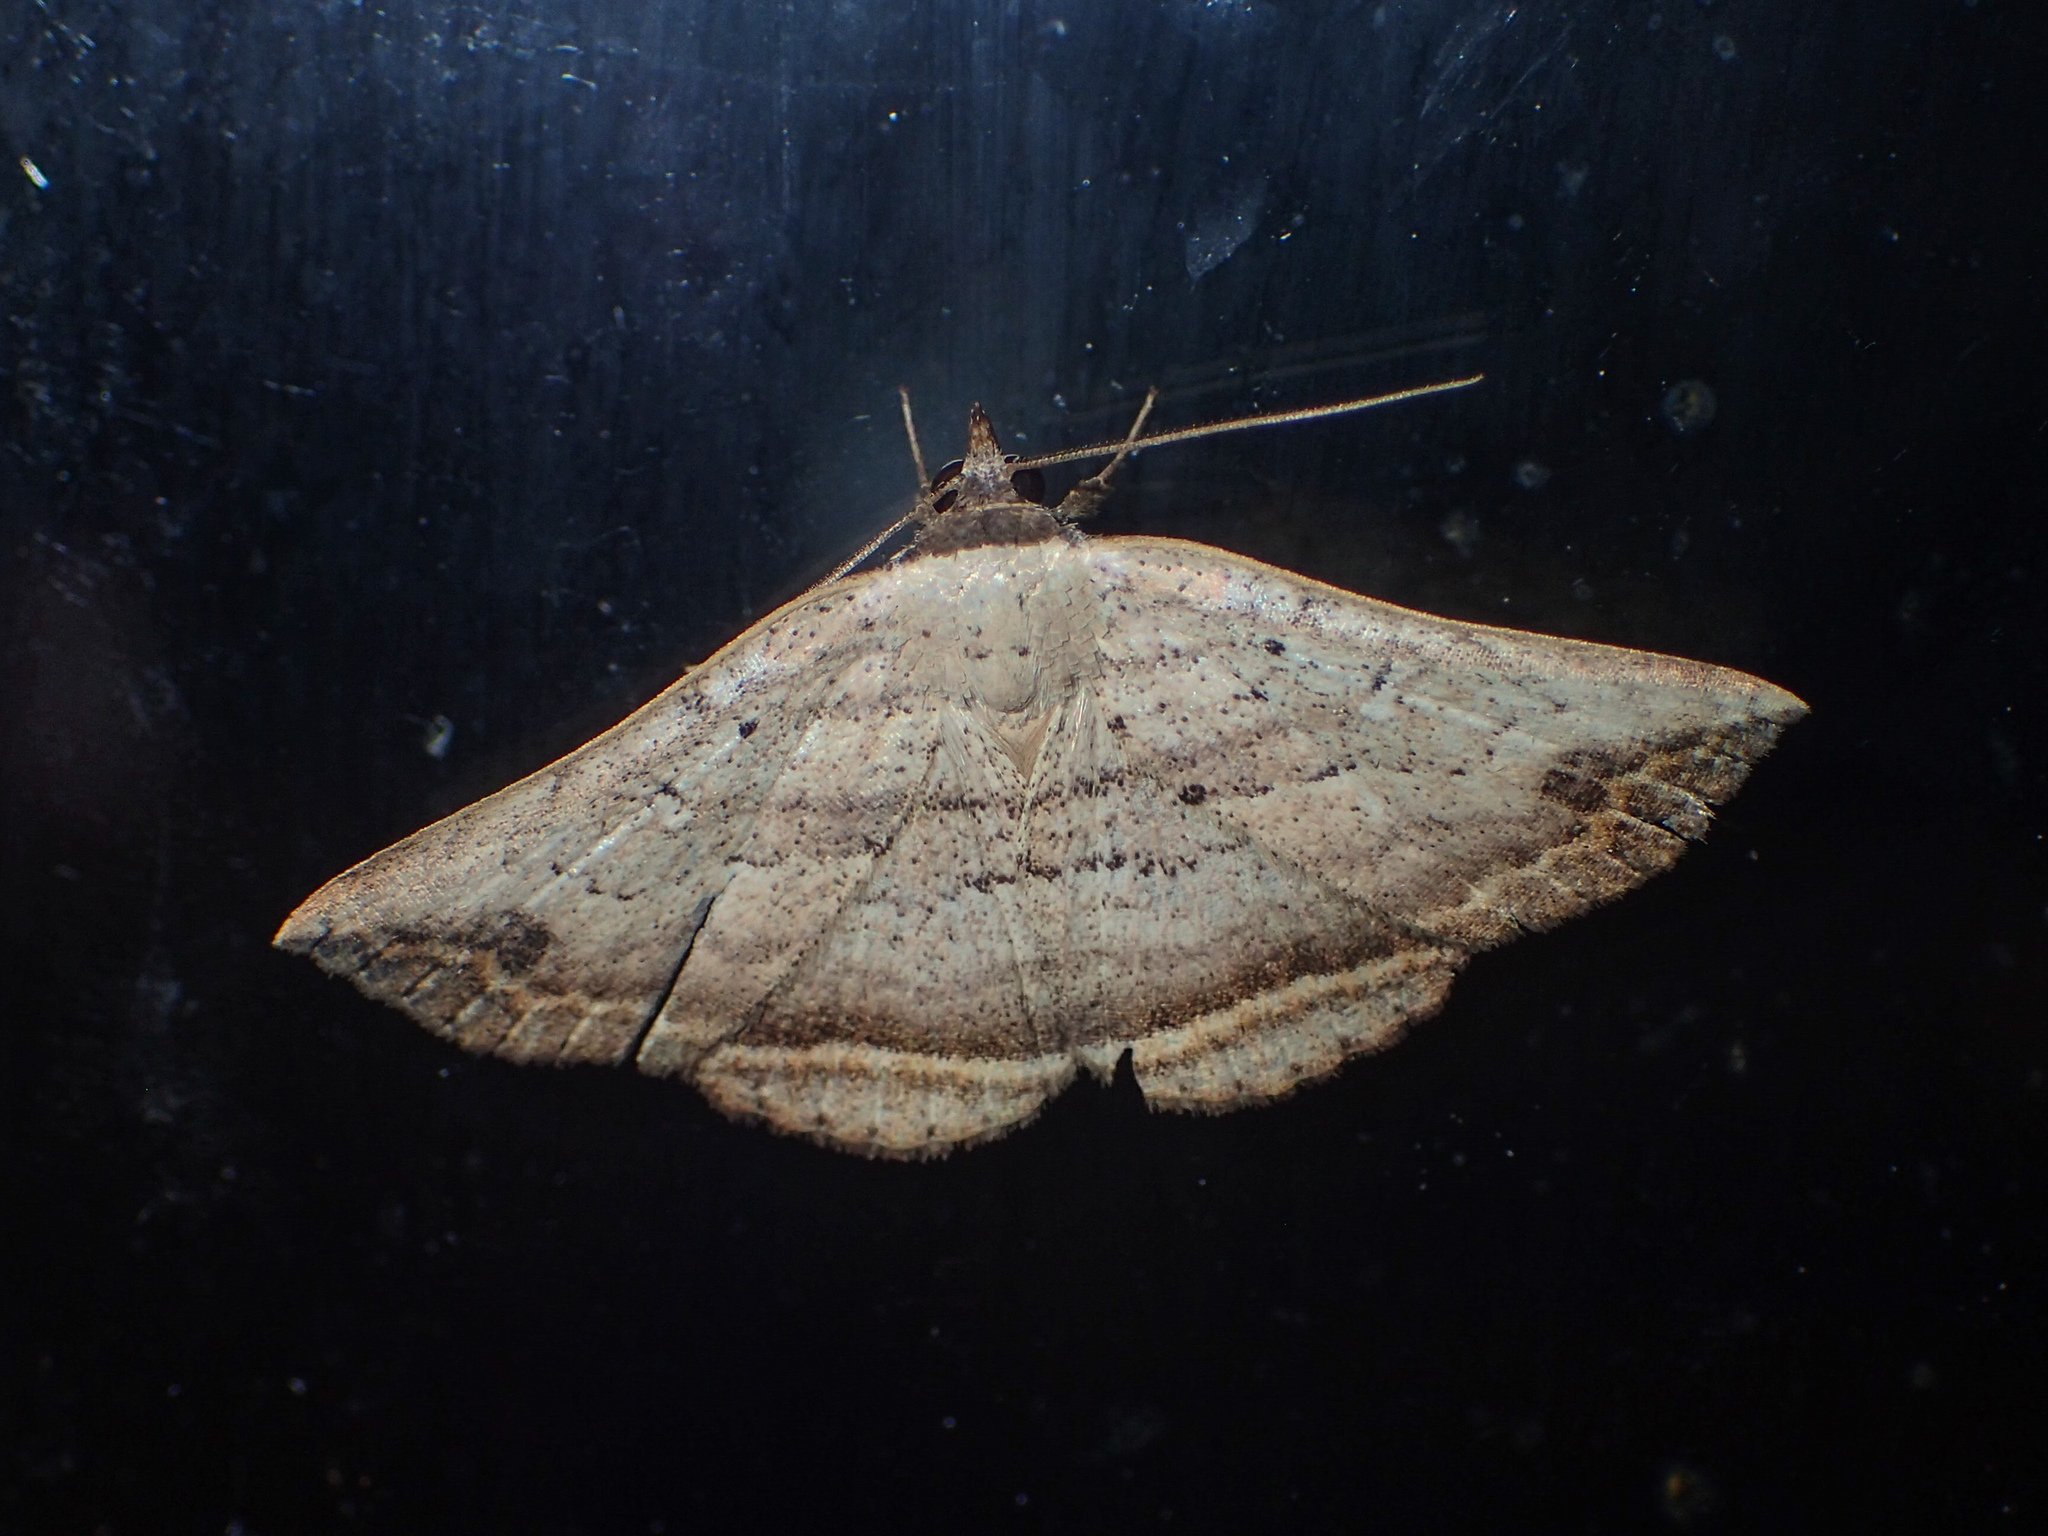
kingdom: Animalia
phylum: Arthropoda
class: Insecta
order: Lepidoptera
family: Erebidae
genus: Blasticorhinus
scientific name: Blasticorhinus
